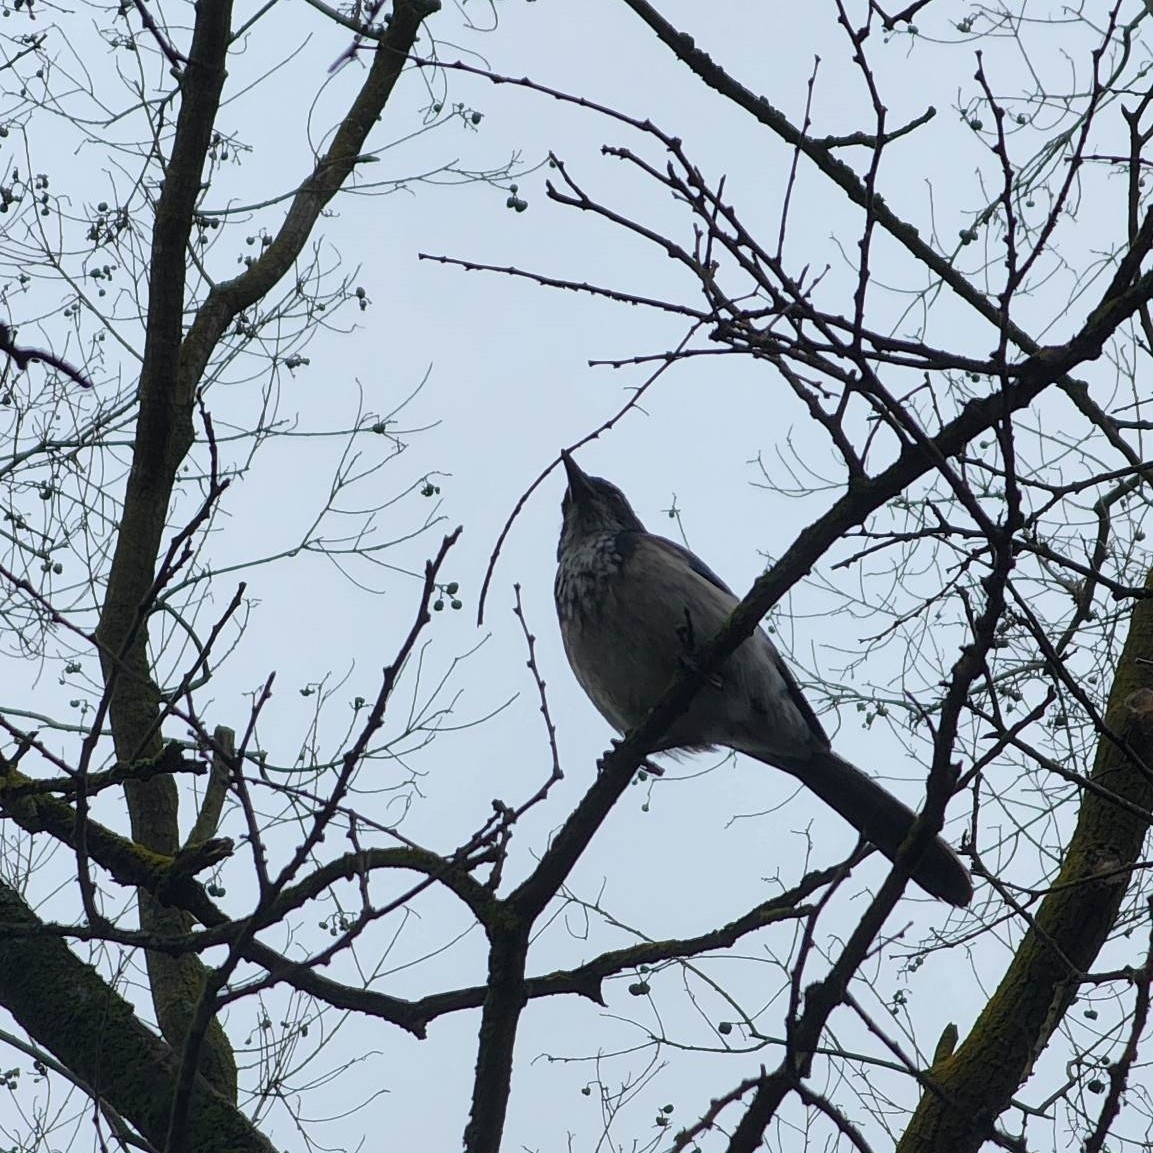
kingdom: Animalia
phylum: Chordata
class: Aves
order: Passeriformes
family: Corvidae
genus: Aphelocoma
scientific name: Aphelocoma californica
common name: California scrub-jay
